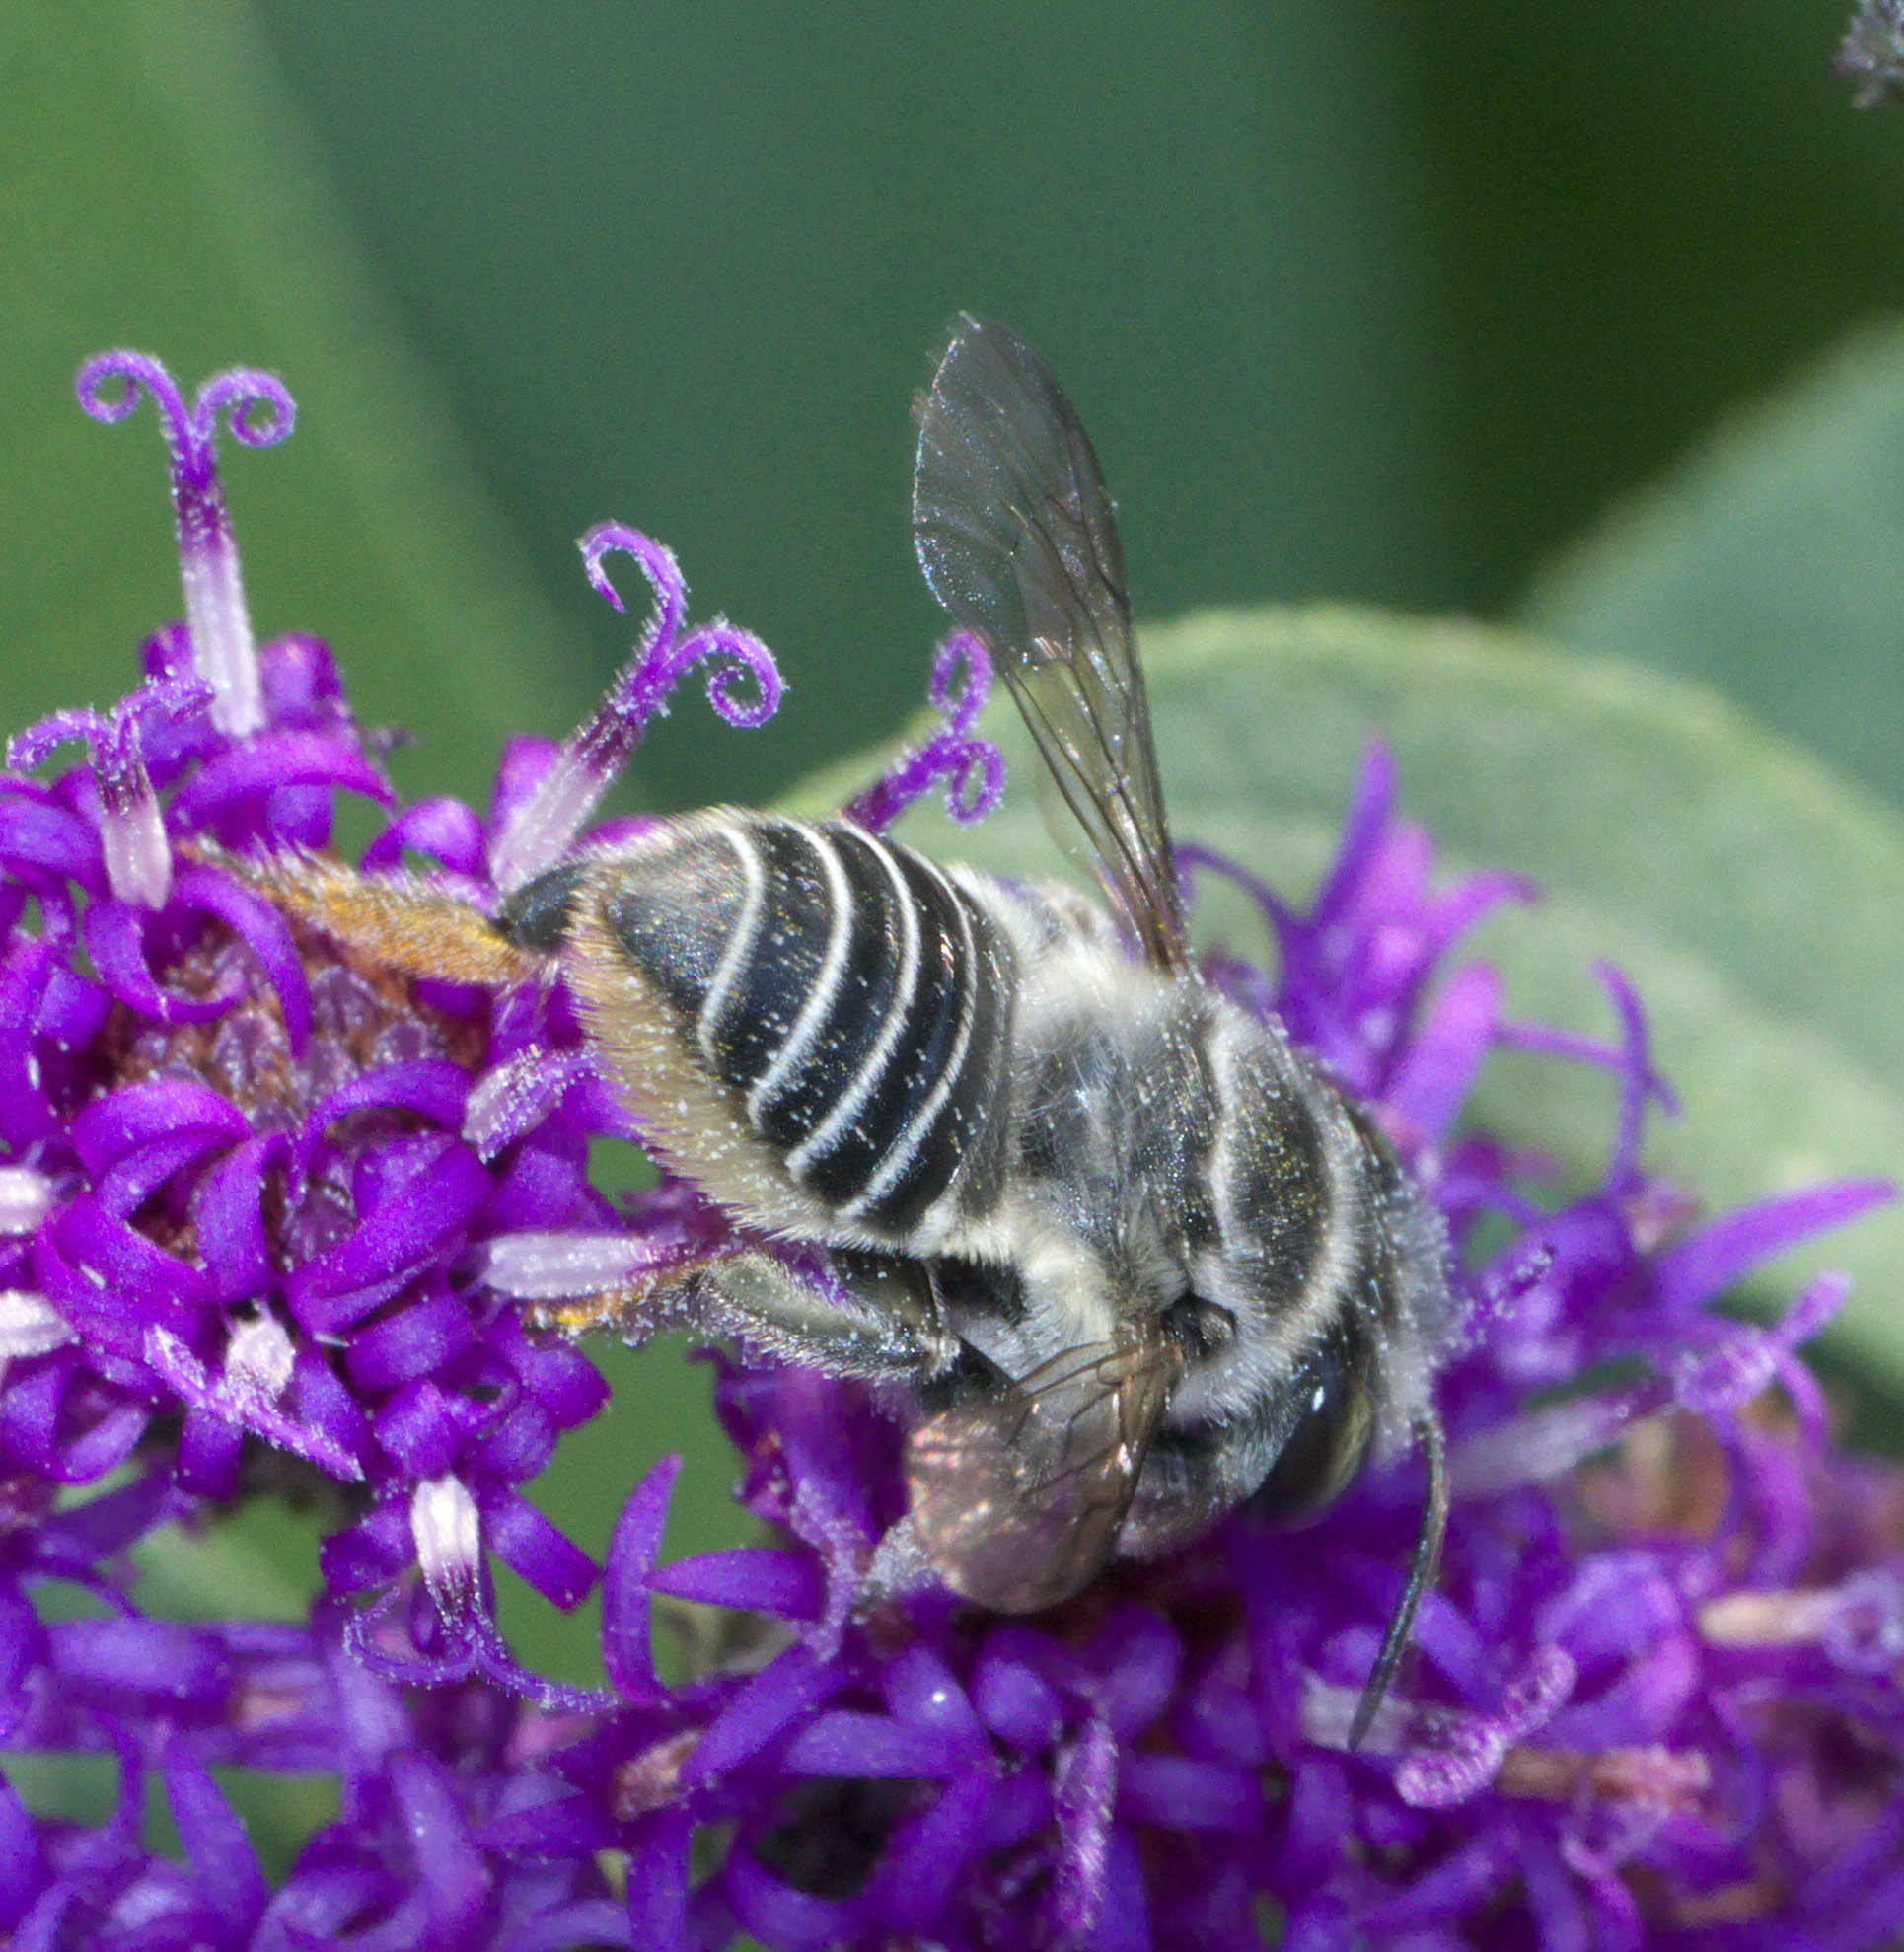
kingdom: Animalia
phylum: Arthropoda
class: Insecta
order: Hymenoptera
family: Megachilidae
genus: Megachile
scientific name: Megachile petulans
